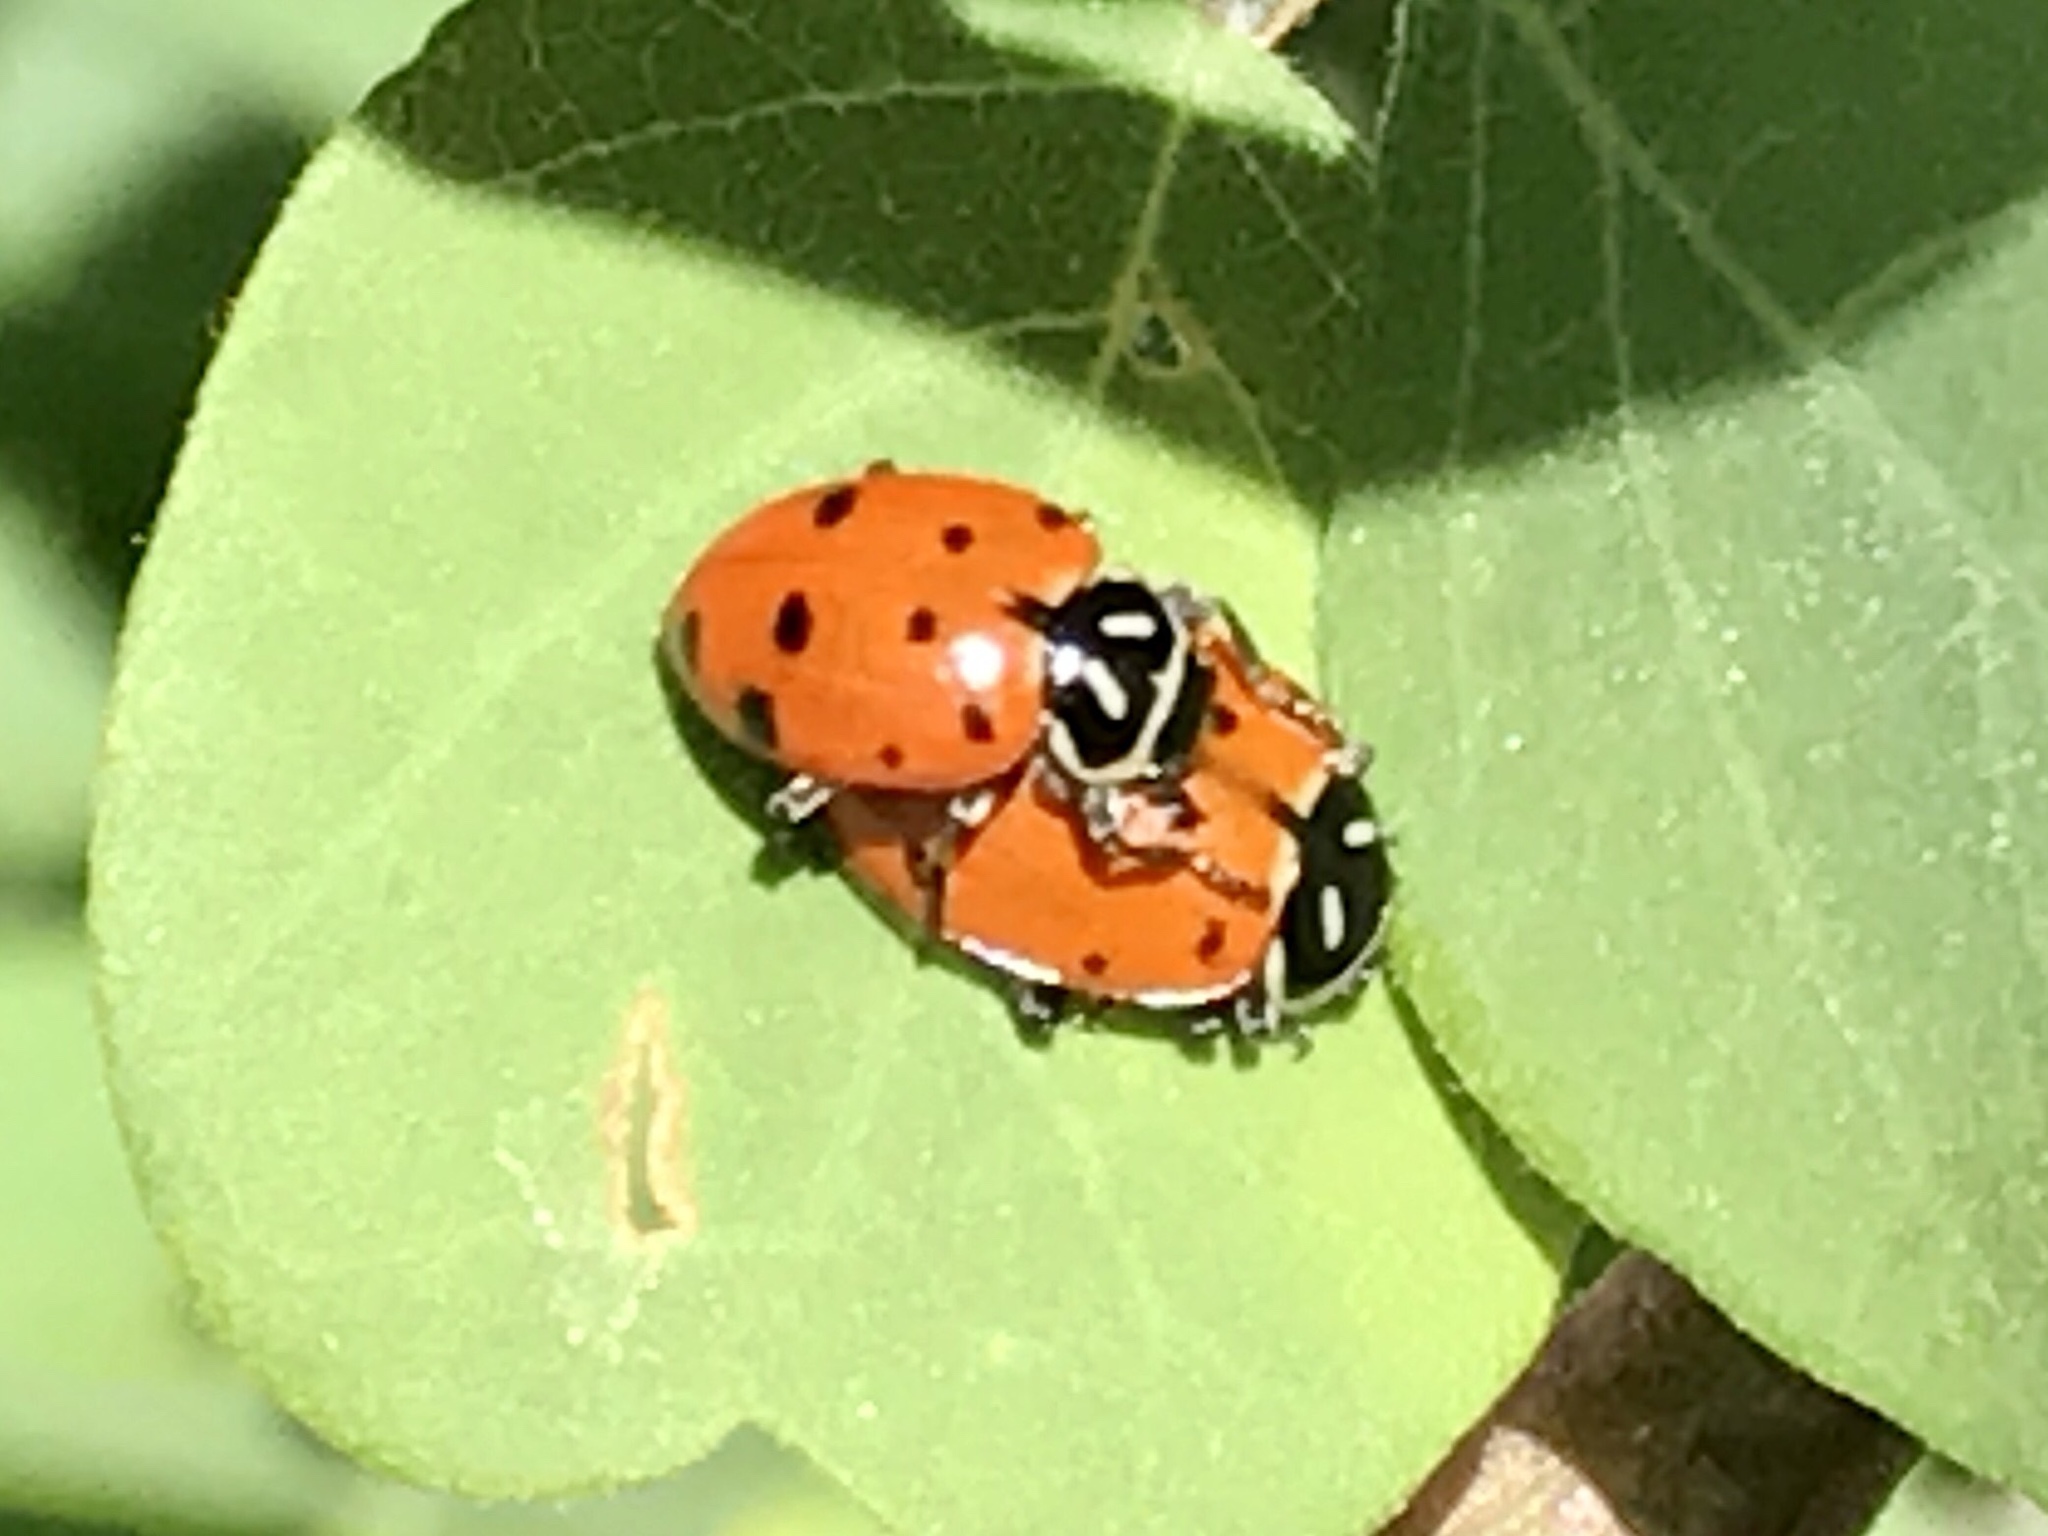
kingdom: Animalia
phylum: Arthropoda
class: Insecta
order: Coleoptera
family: Coccinellidae
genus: Hippodamia
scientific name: Hippodamia convergens
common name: Convergent lady beetle
